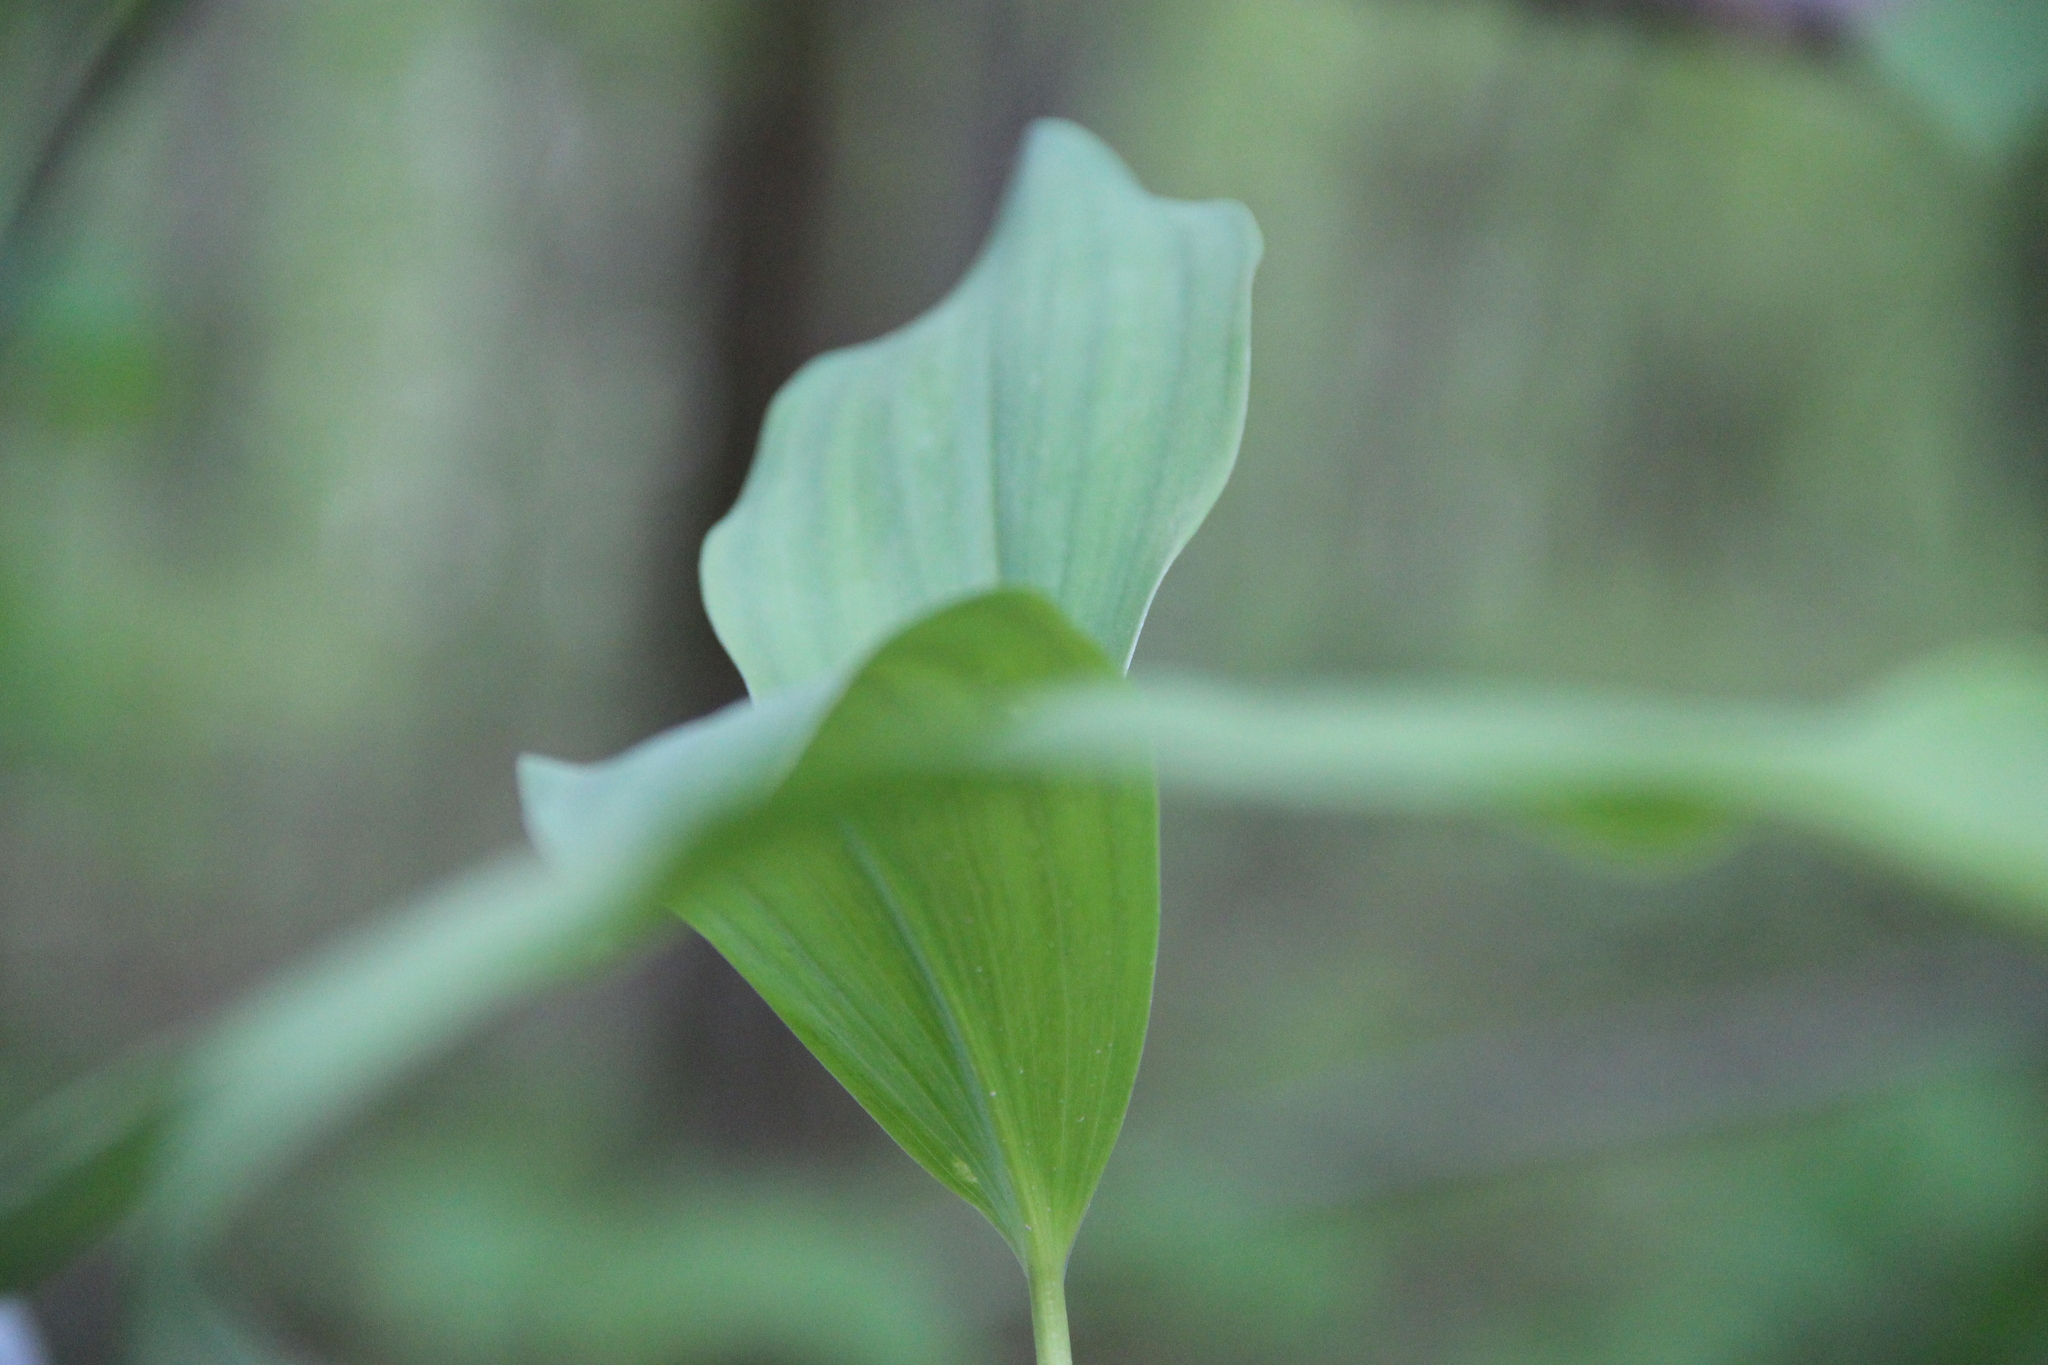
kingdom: Plantae
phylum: Tracheophyta
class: Liliopsida
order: Asparagales
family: Asparagaceae
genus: Convallaria
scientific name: Convallaria majalis
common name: Lily-of-the-valley
